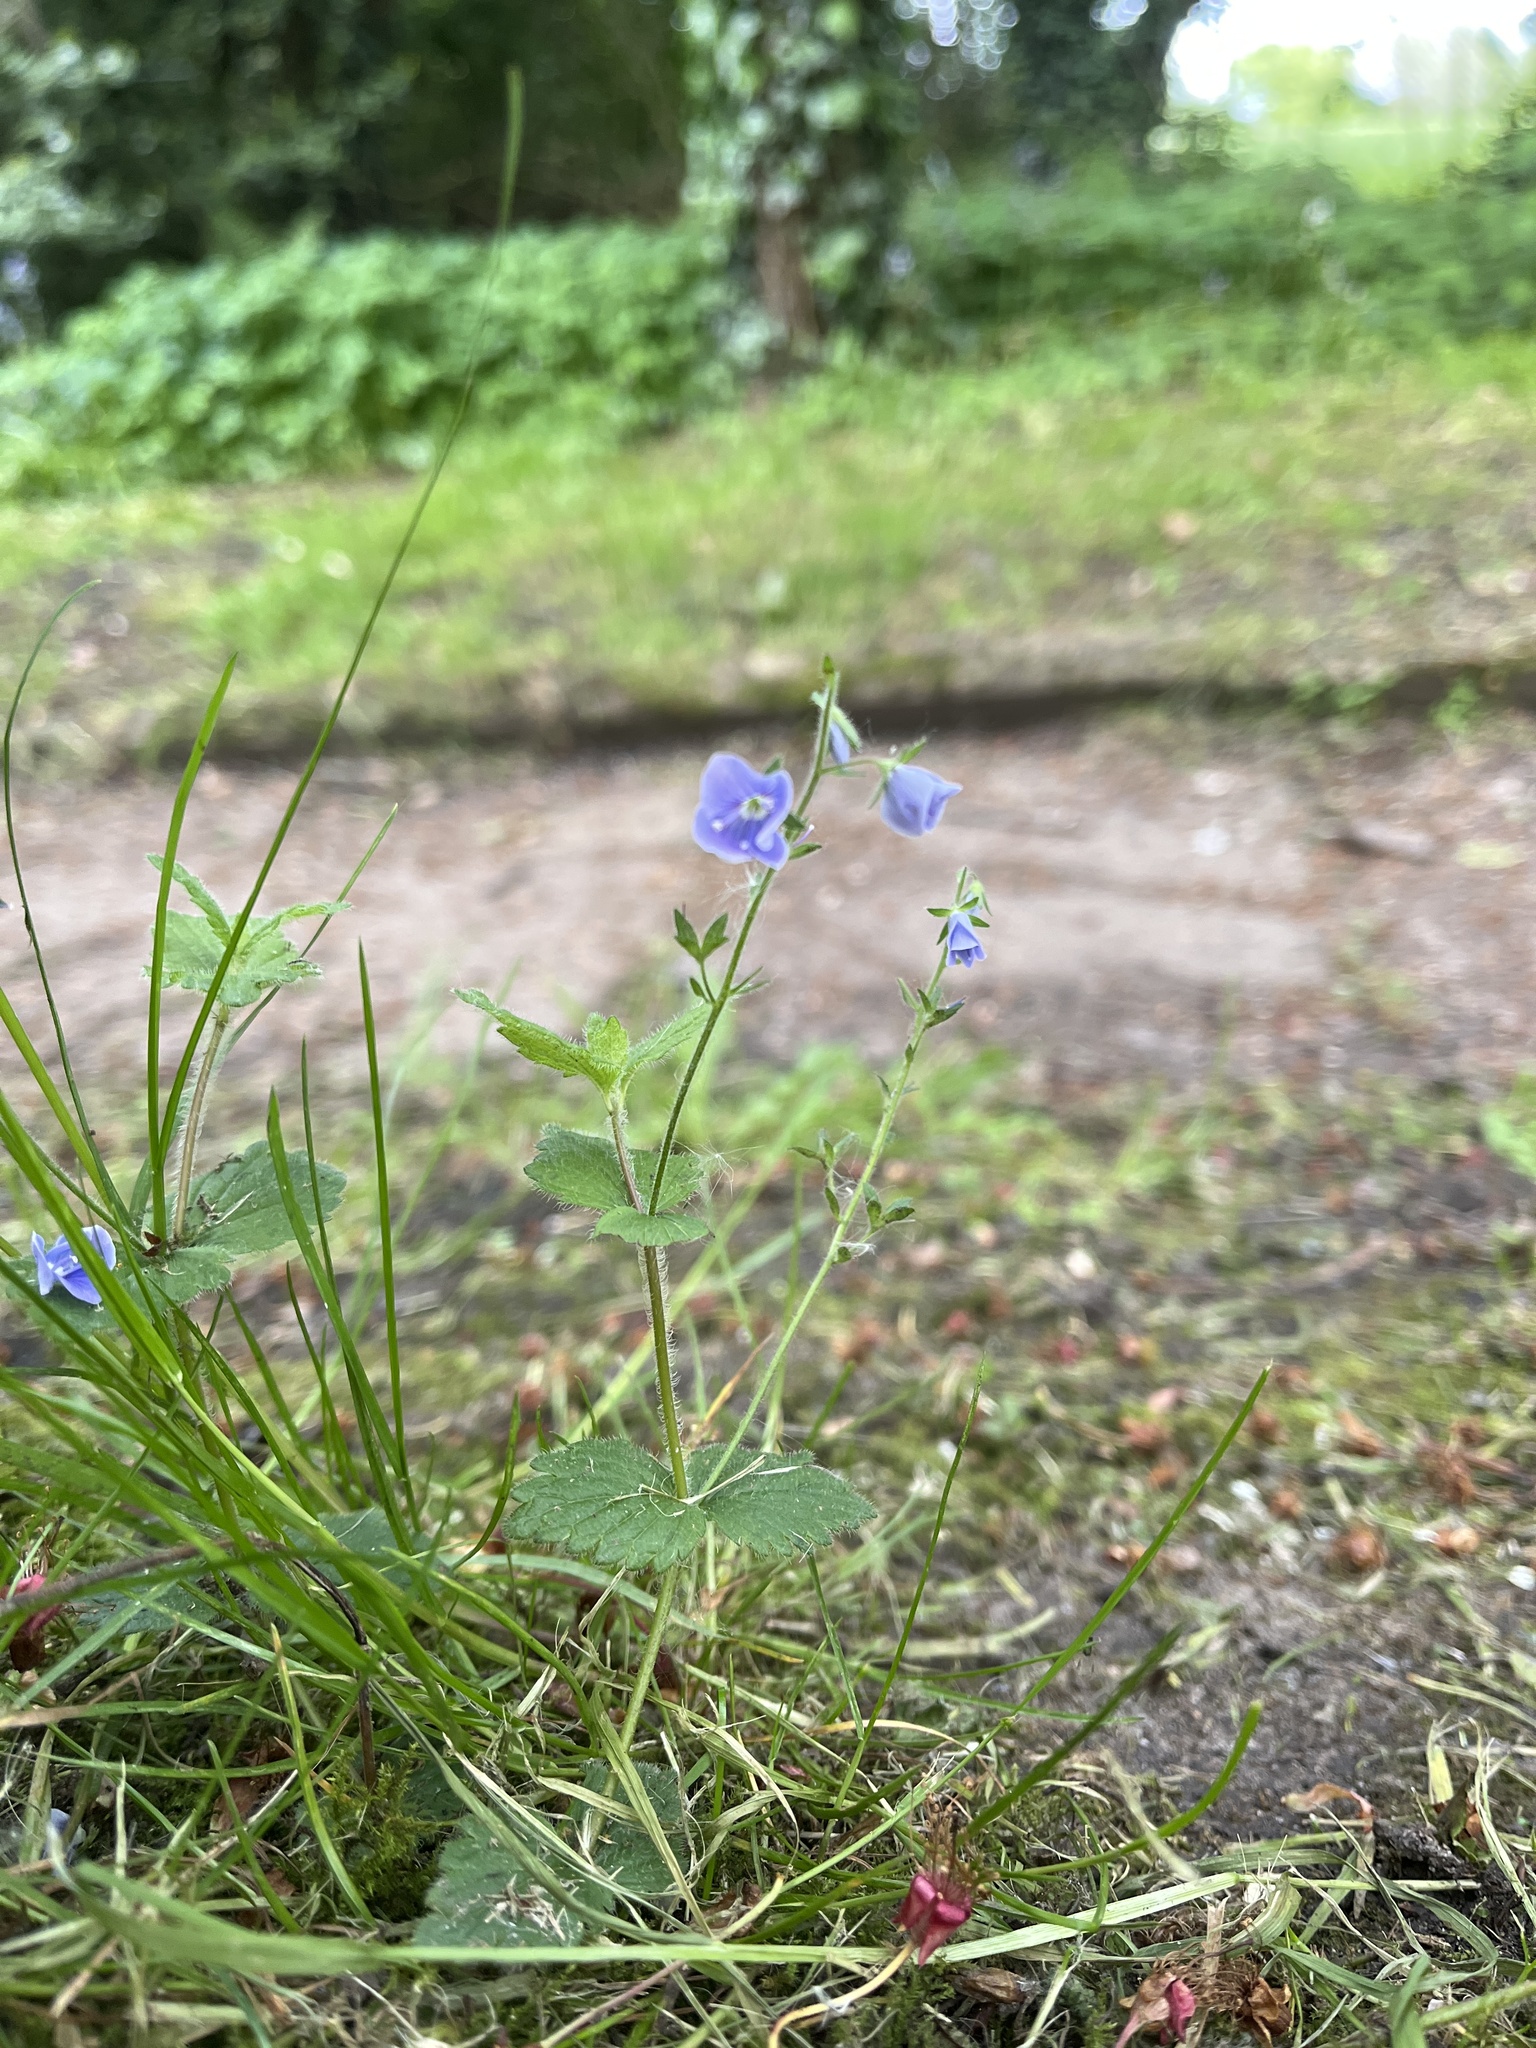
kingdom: Plantae
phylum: Tracheophyta
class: Magnoliopsida
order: Lamiales
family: Plantaginaceae
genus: Veronica
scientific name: Veronica chamaedrys
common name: Germander speedwell
